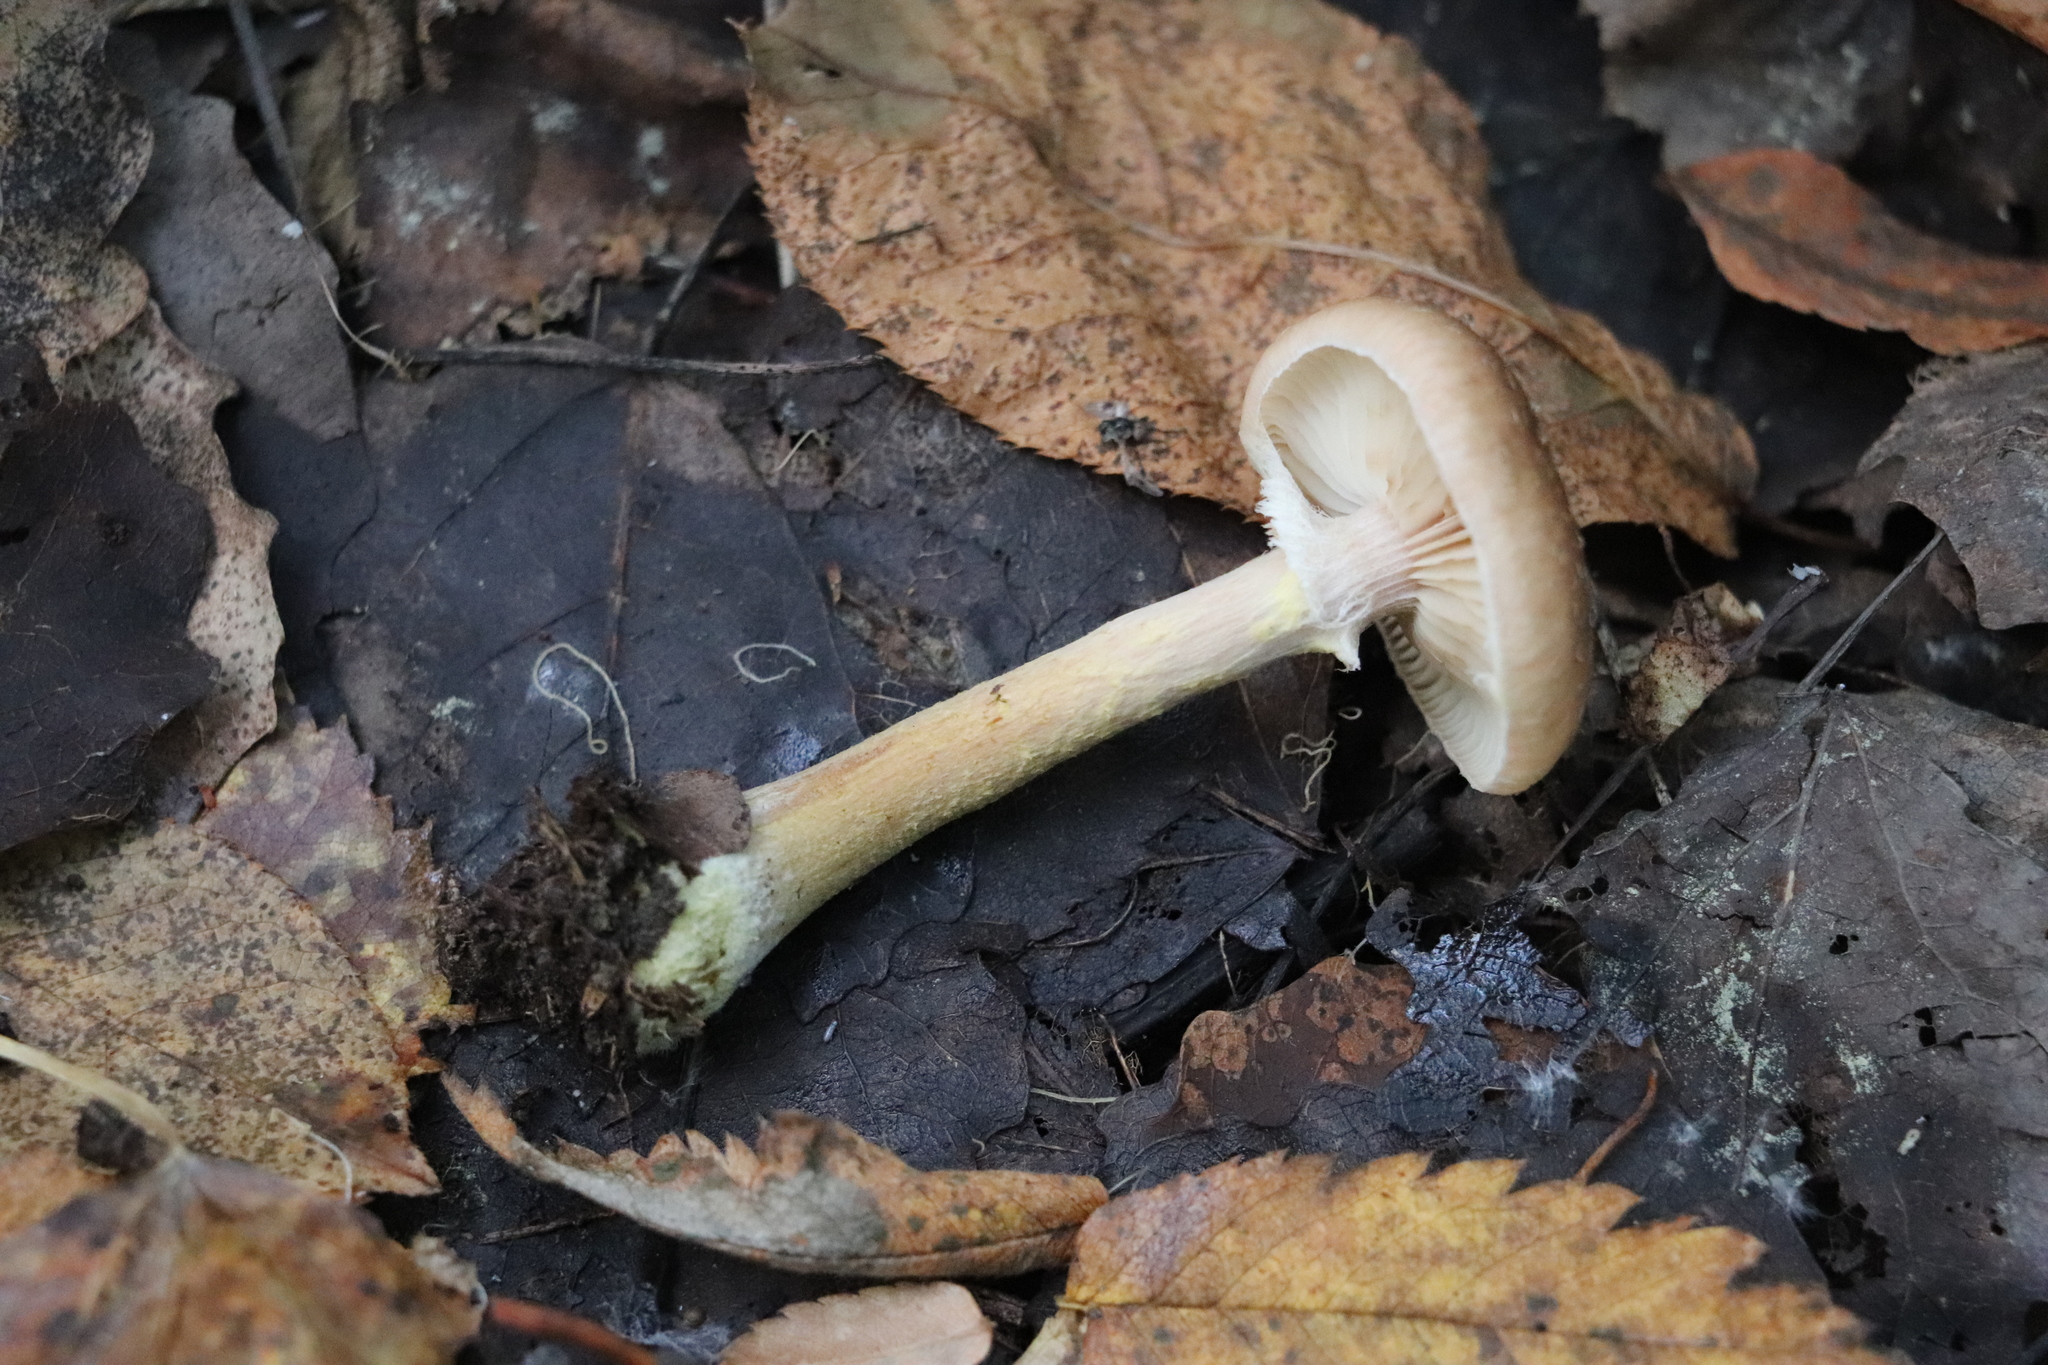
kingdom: Fungi
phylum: Basidiomycota
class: Agaricomycetes
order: Agaricales
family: Physalacriaceae
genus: Armillaria
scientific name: Armillaria cepistipes
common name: Mullet honey fungus
